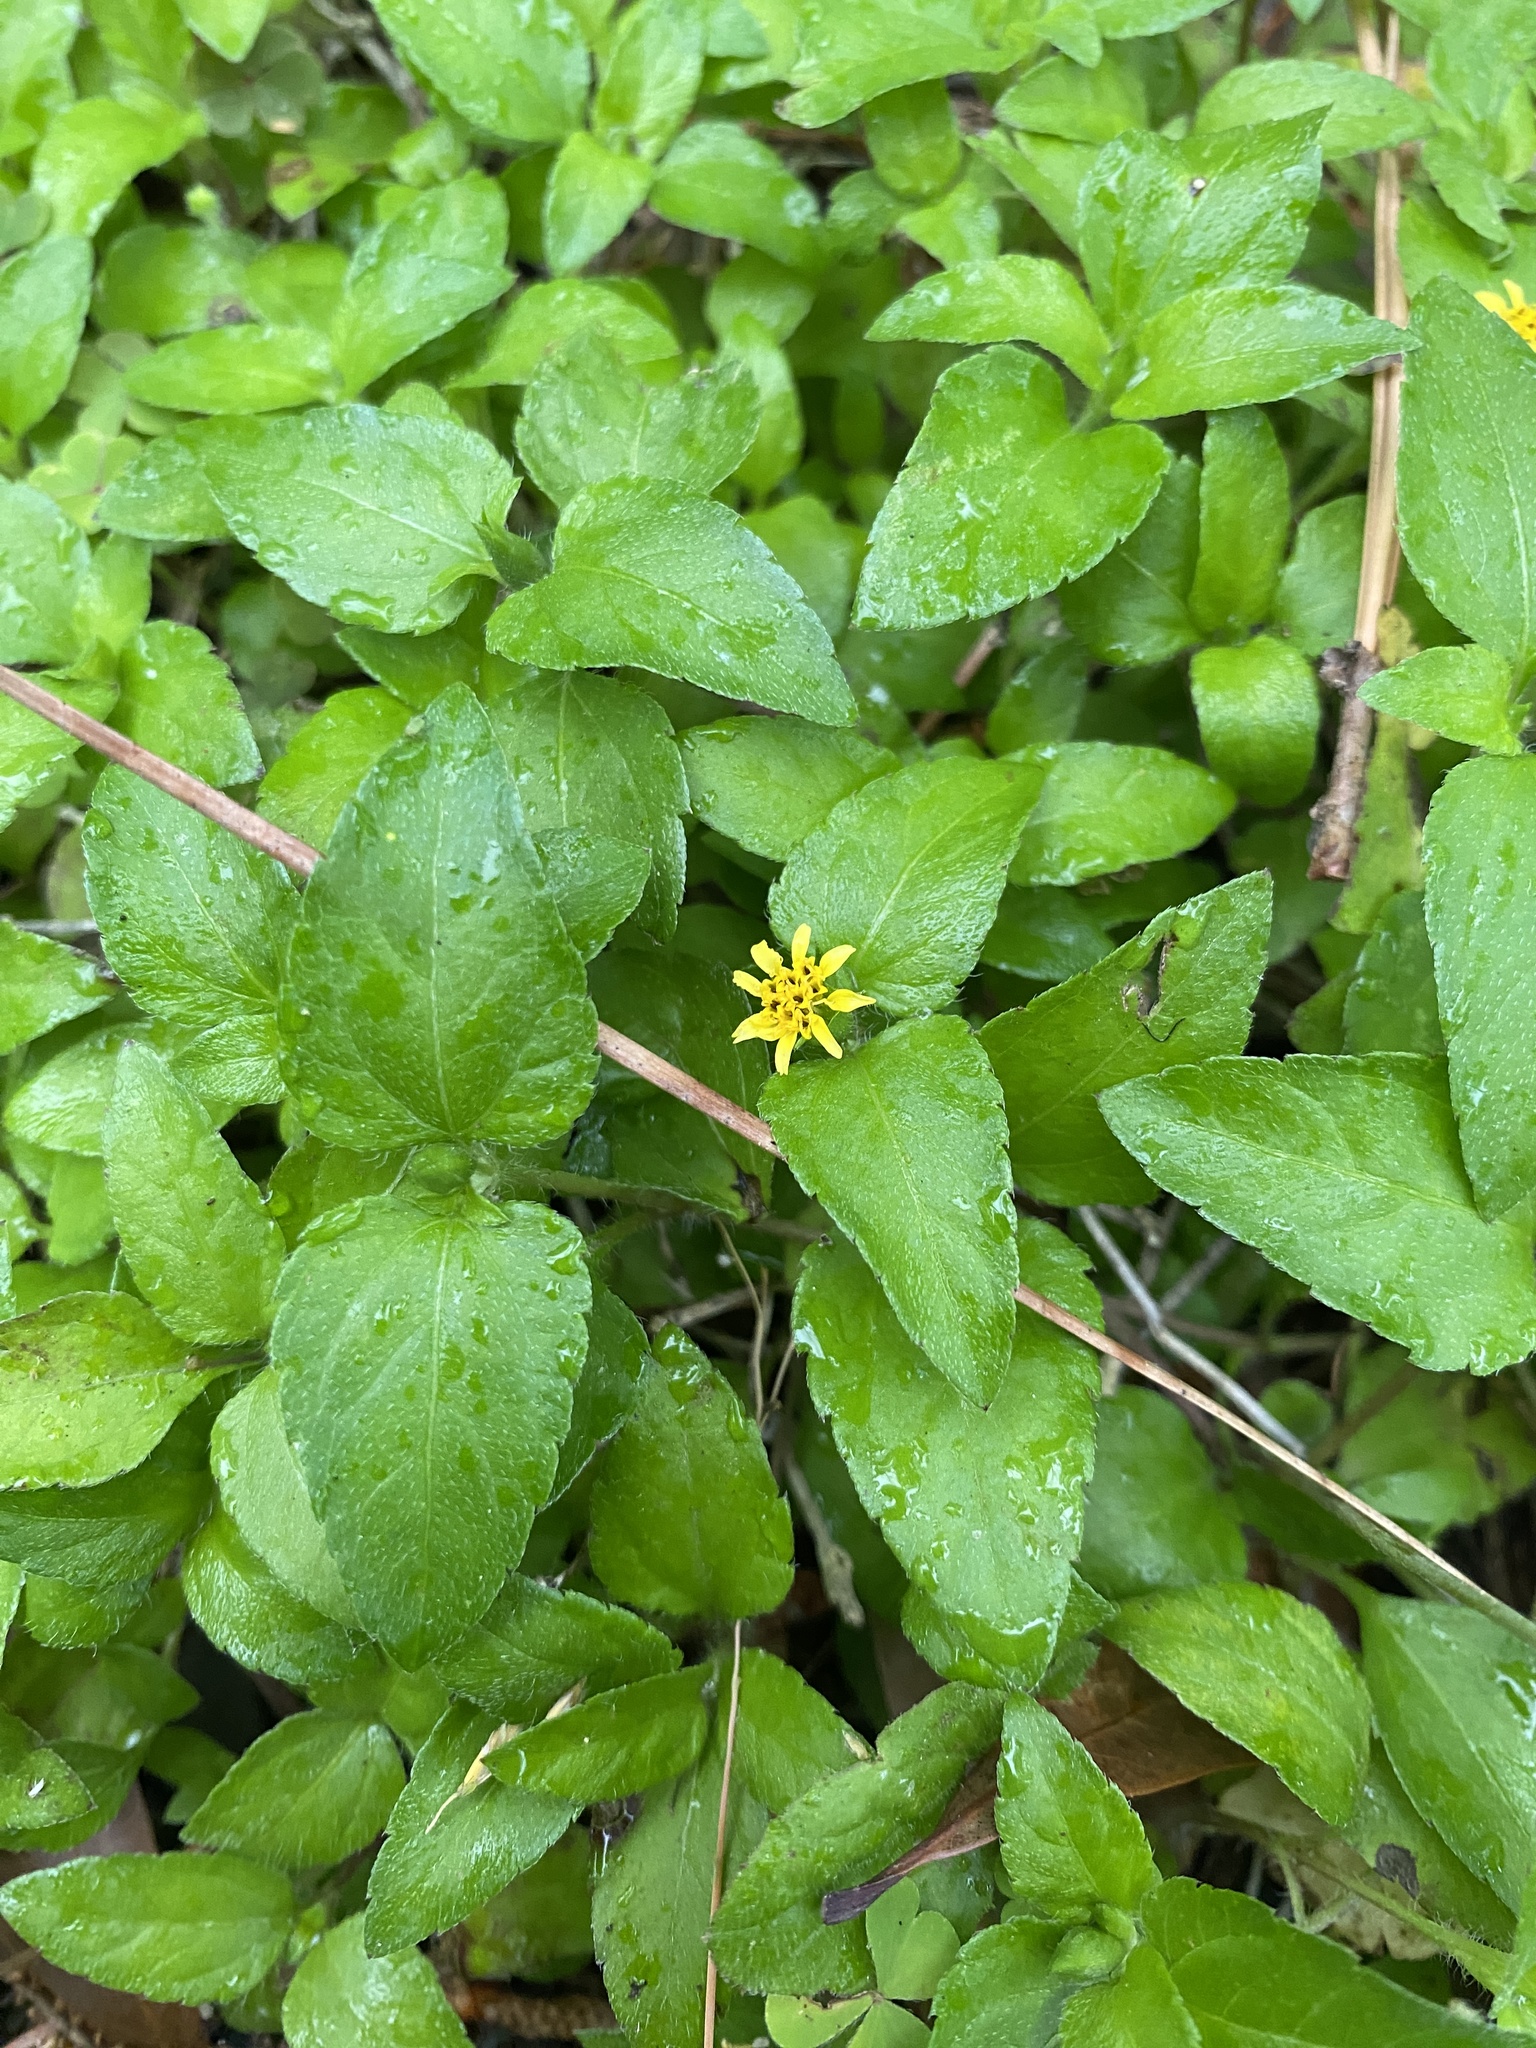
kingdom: Plantae
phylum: Tracheophyta
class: Magnoliopsida
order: Asterales
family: Asteraceae
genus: Calyptocarpus
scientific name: Calyptocarpus vialis
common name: Straggler daisy
